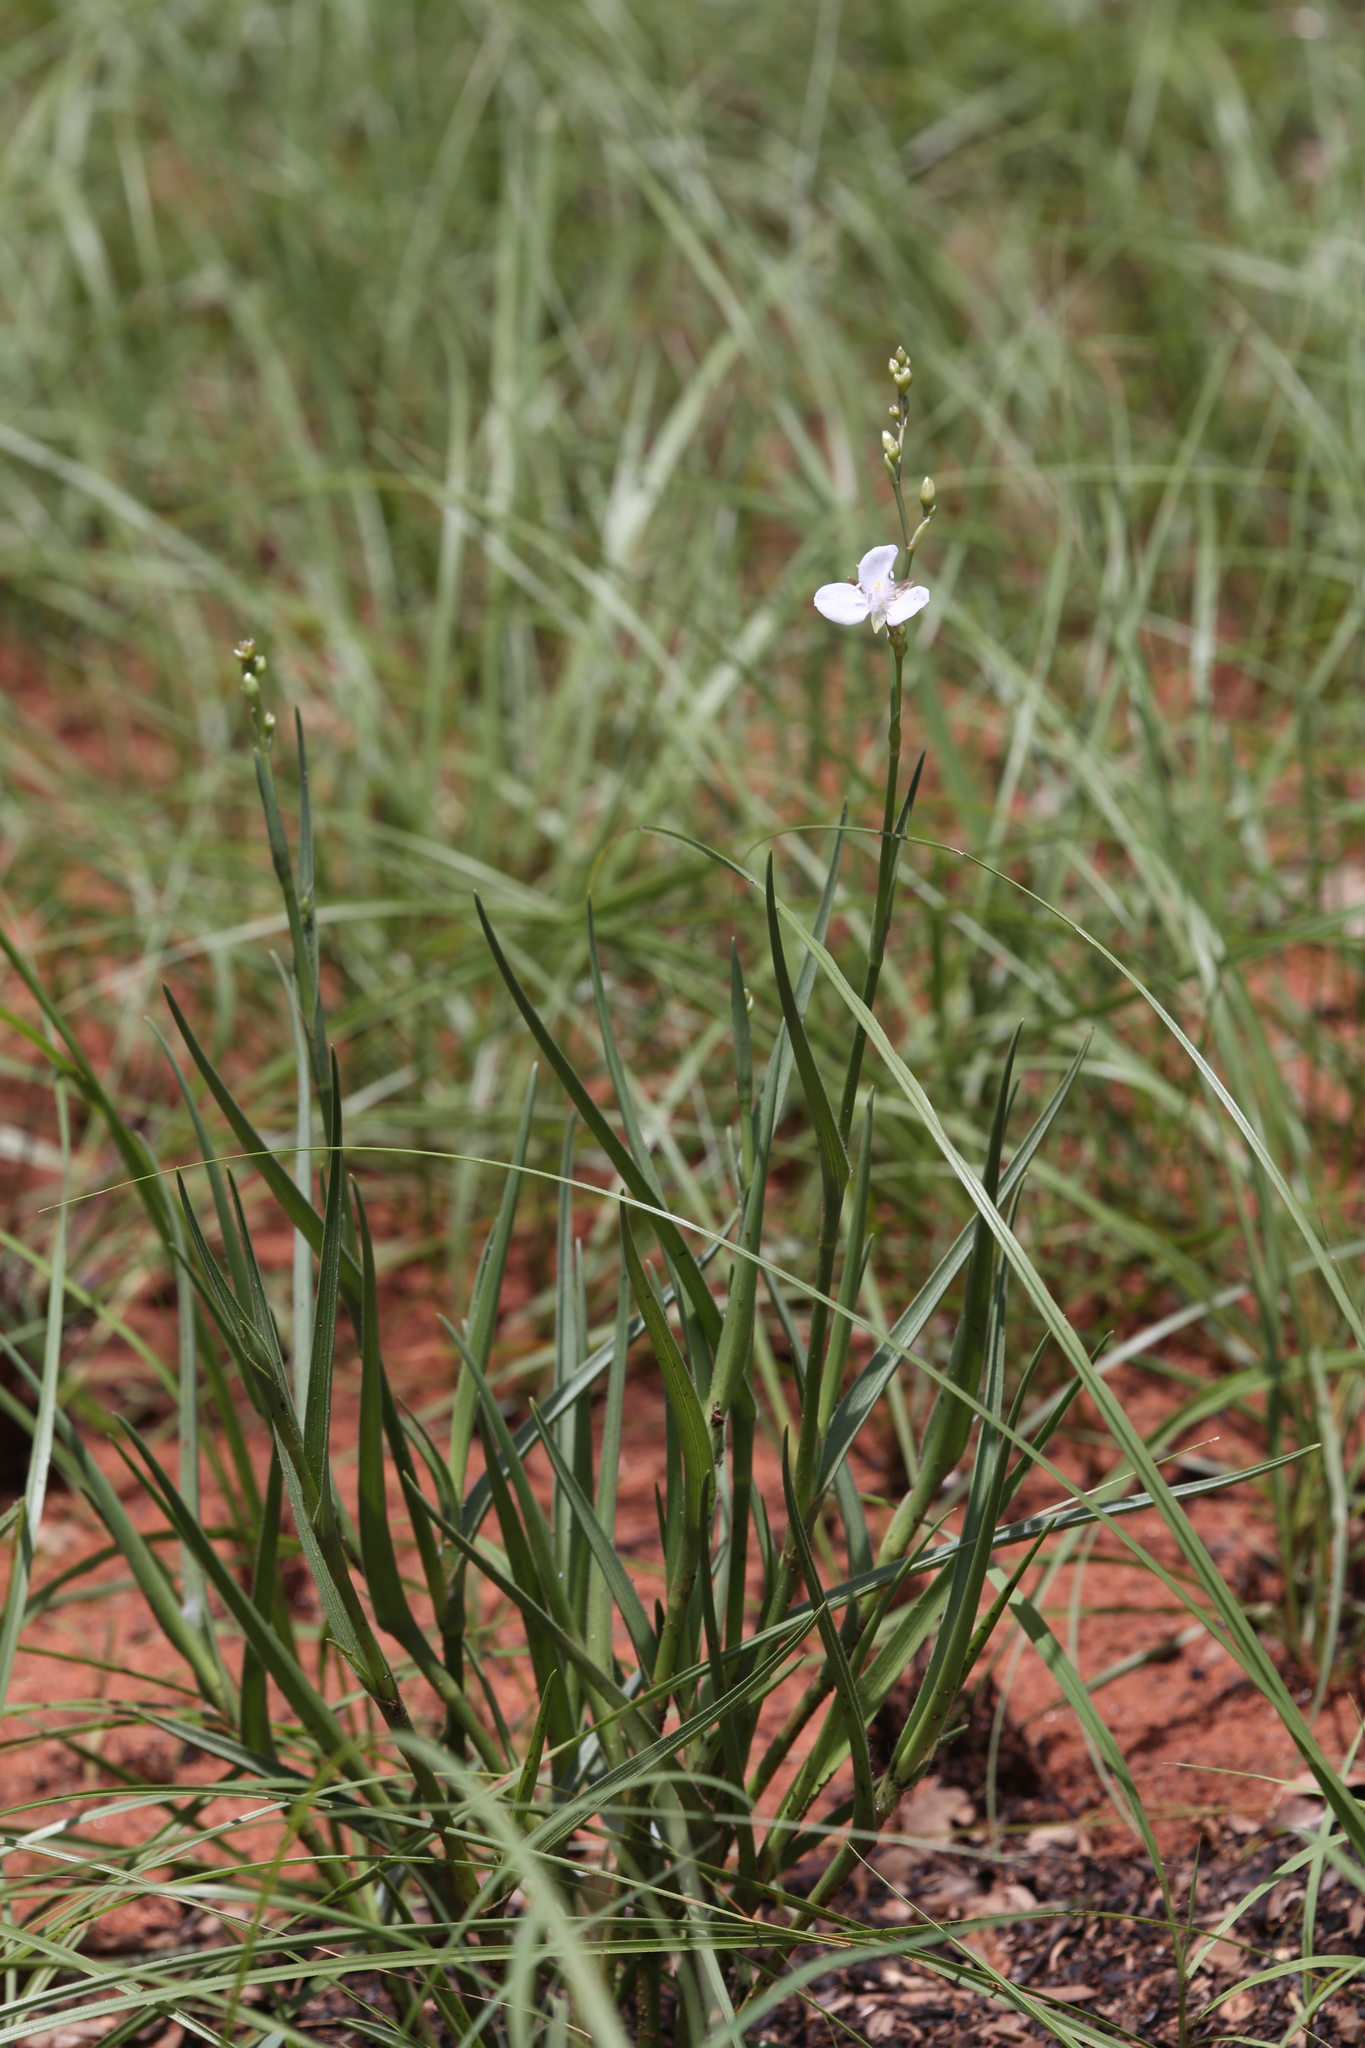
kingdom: Plantae
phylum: Tracheophyta
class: Liliopsida
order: Commelinales
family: Commelinaceae
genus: Murdannia
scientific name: Murdannia graminea
